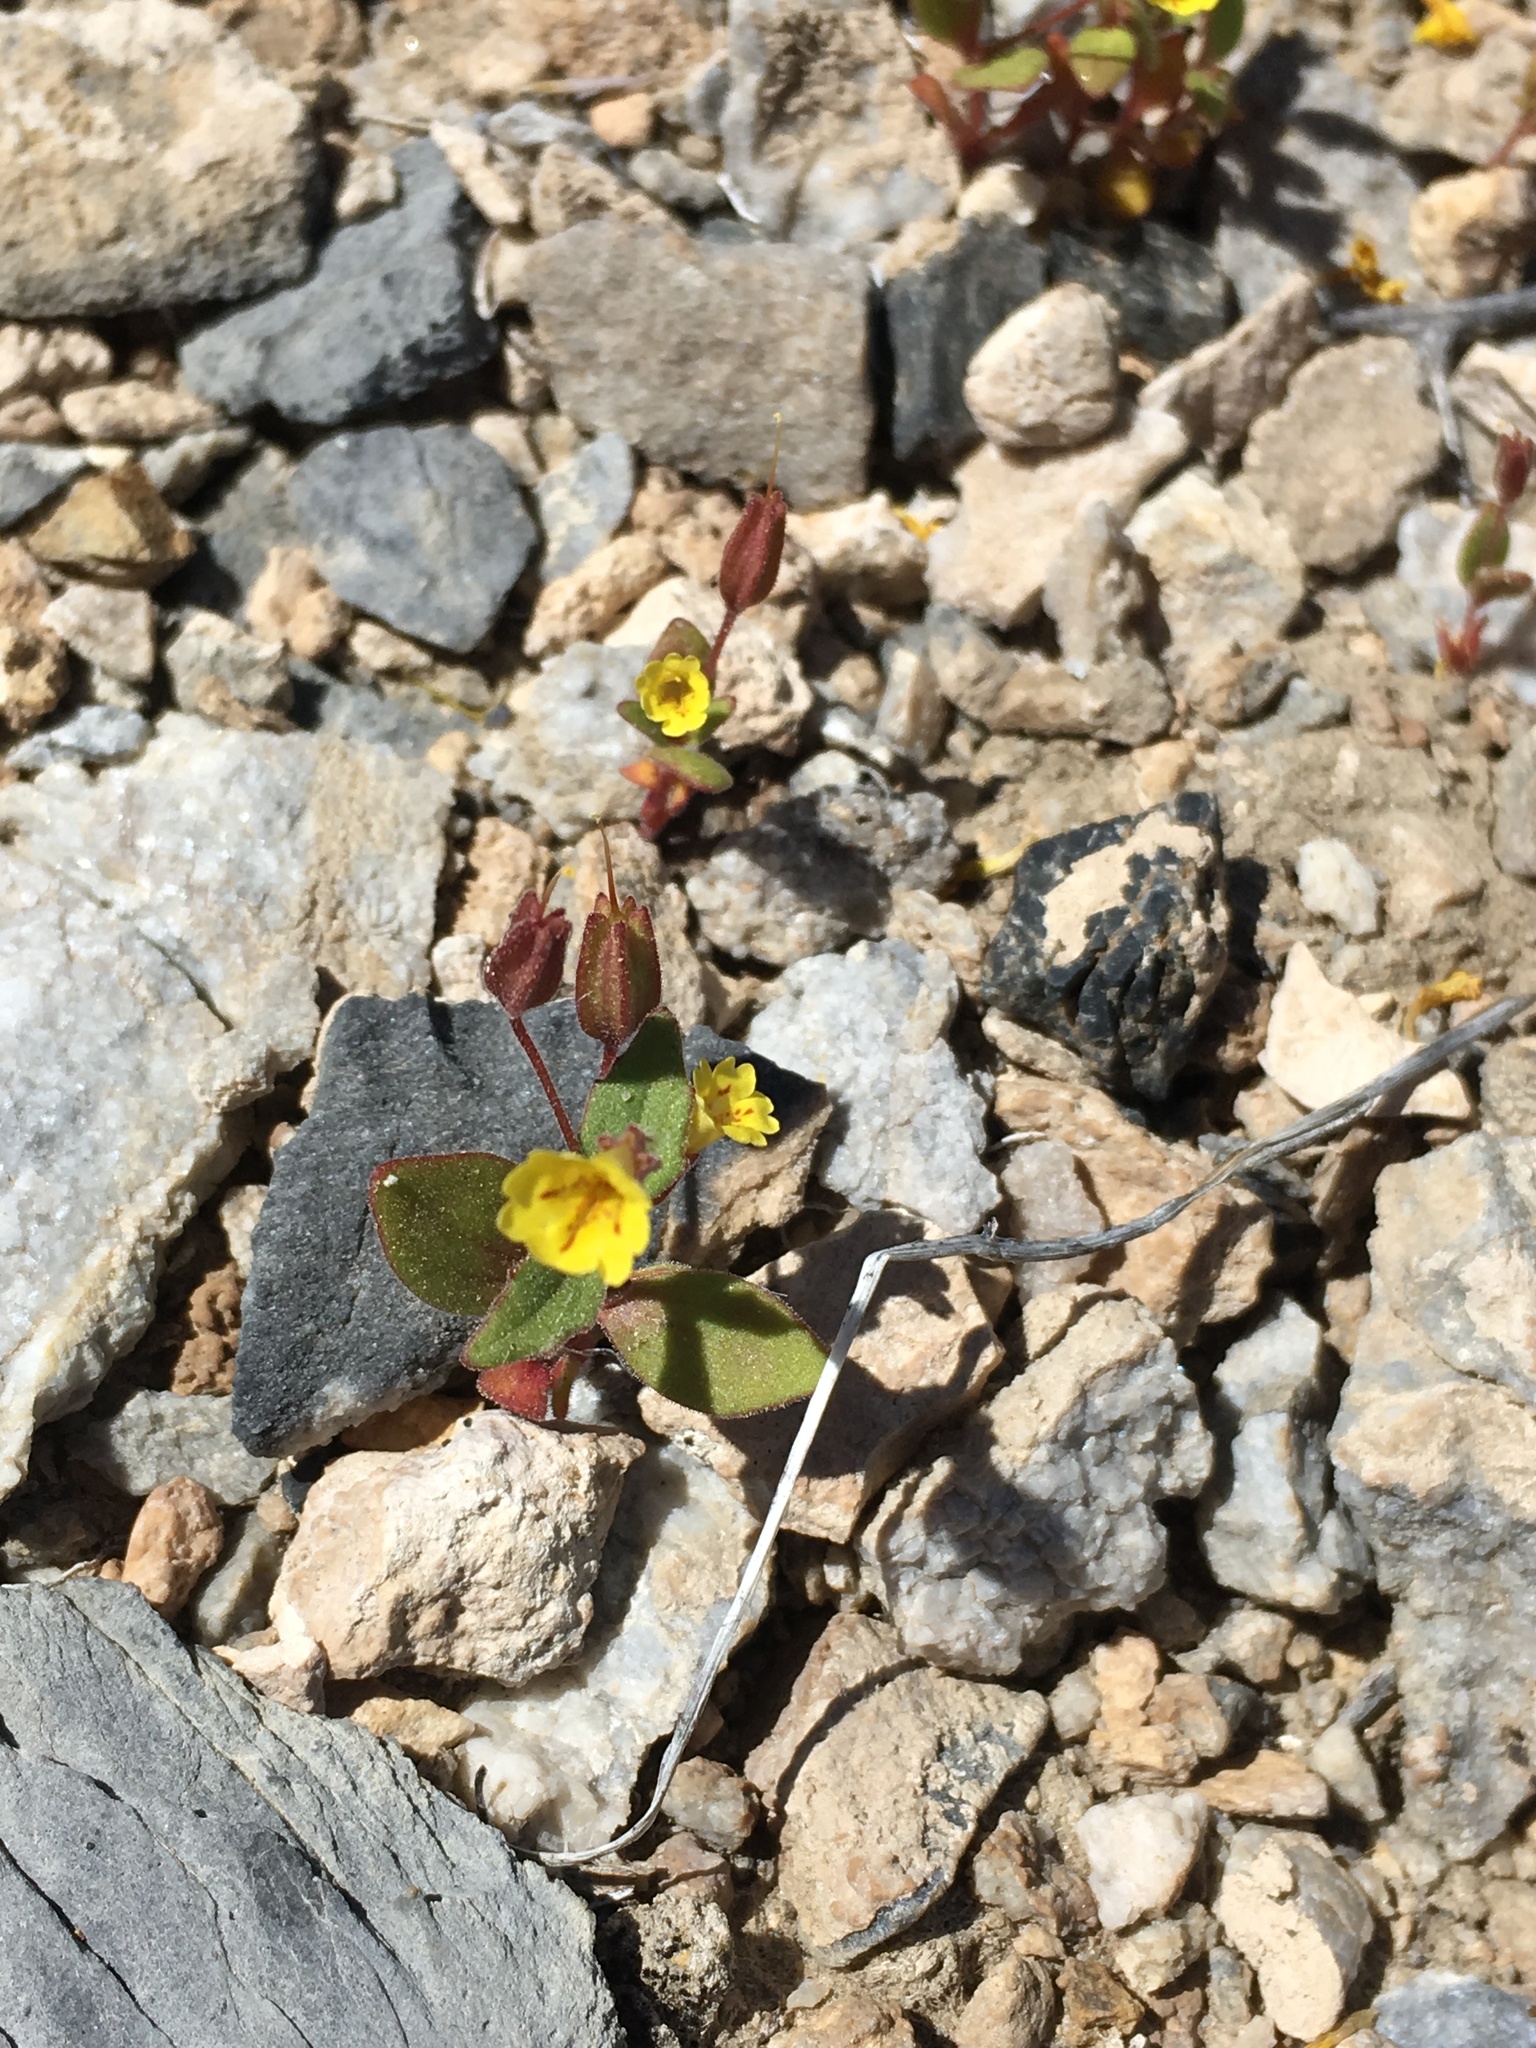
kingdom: Plantae
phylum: Tracheophyta
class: Magnoliopsida
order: Lamiales
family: Phrymaceae
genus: Erythranthe
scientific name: Erythranthe calcicola
